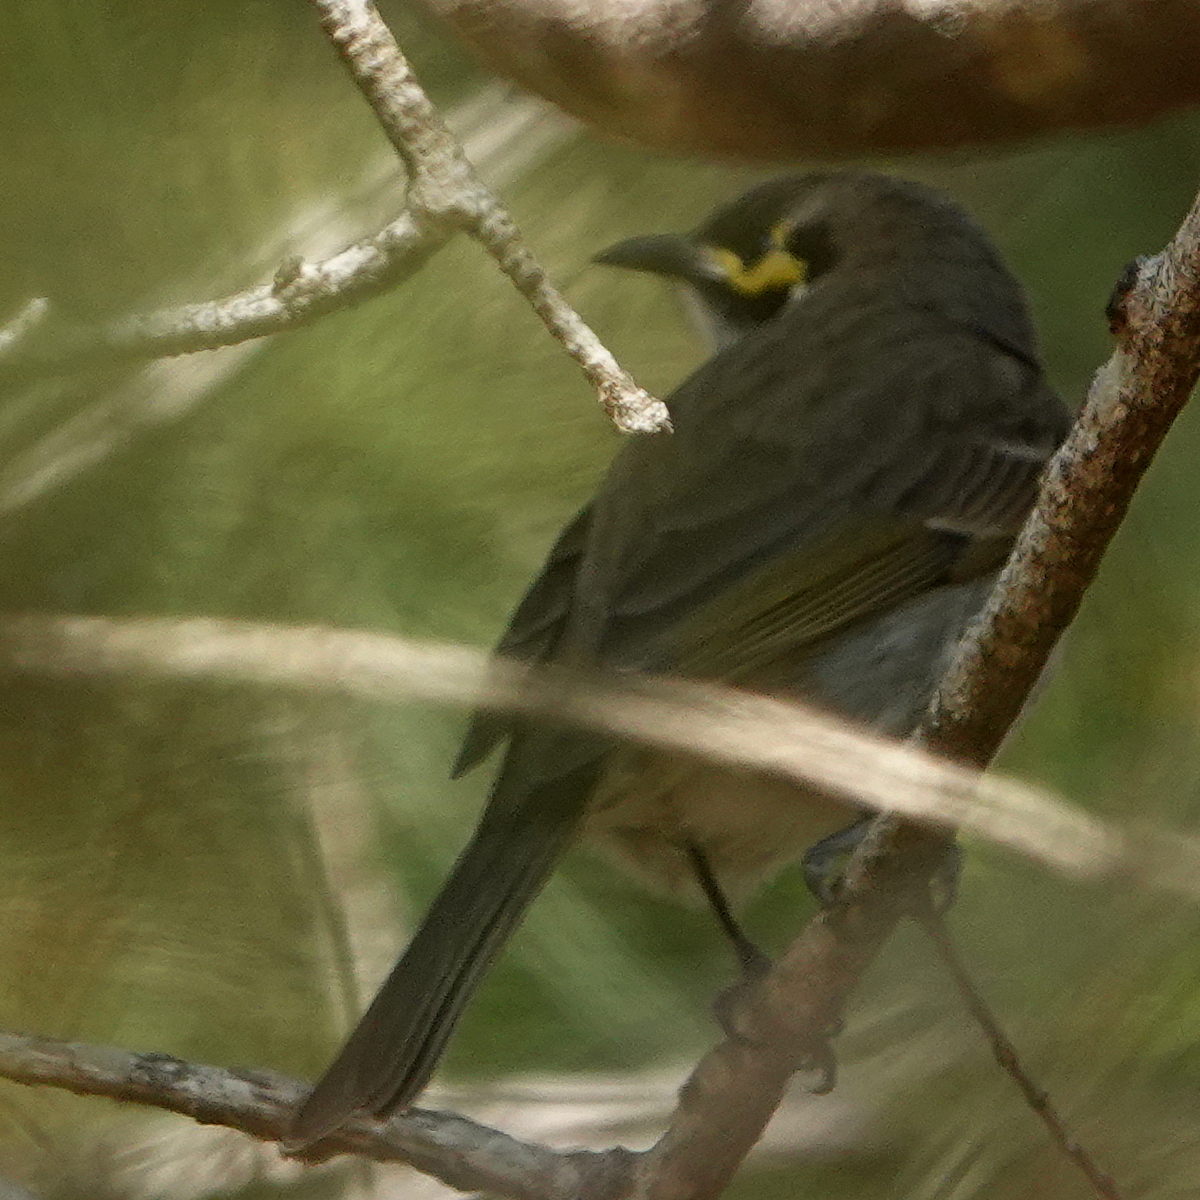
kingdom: Animalia
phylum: Chordata
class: Aves
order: Passeriformes
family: Meliphagidae
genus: Caligavis
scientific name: Caligavis chrysops
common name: Yellow-faced honeyeater
